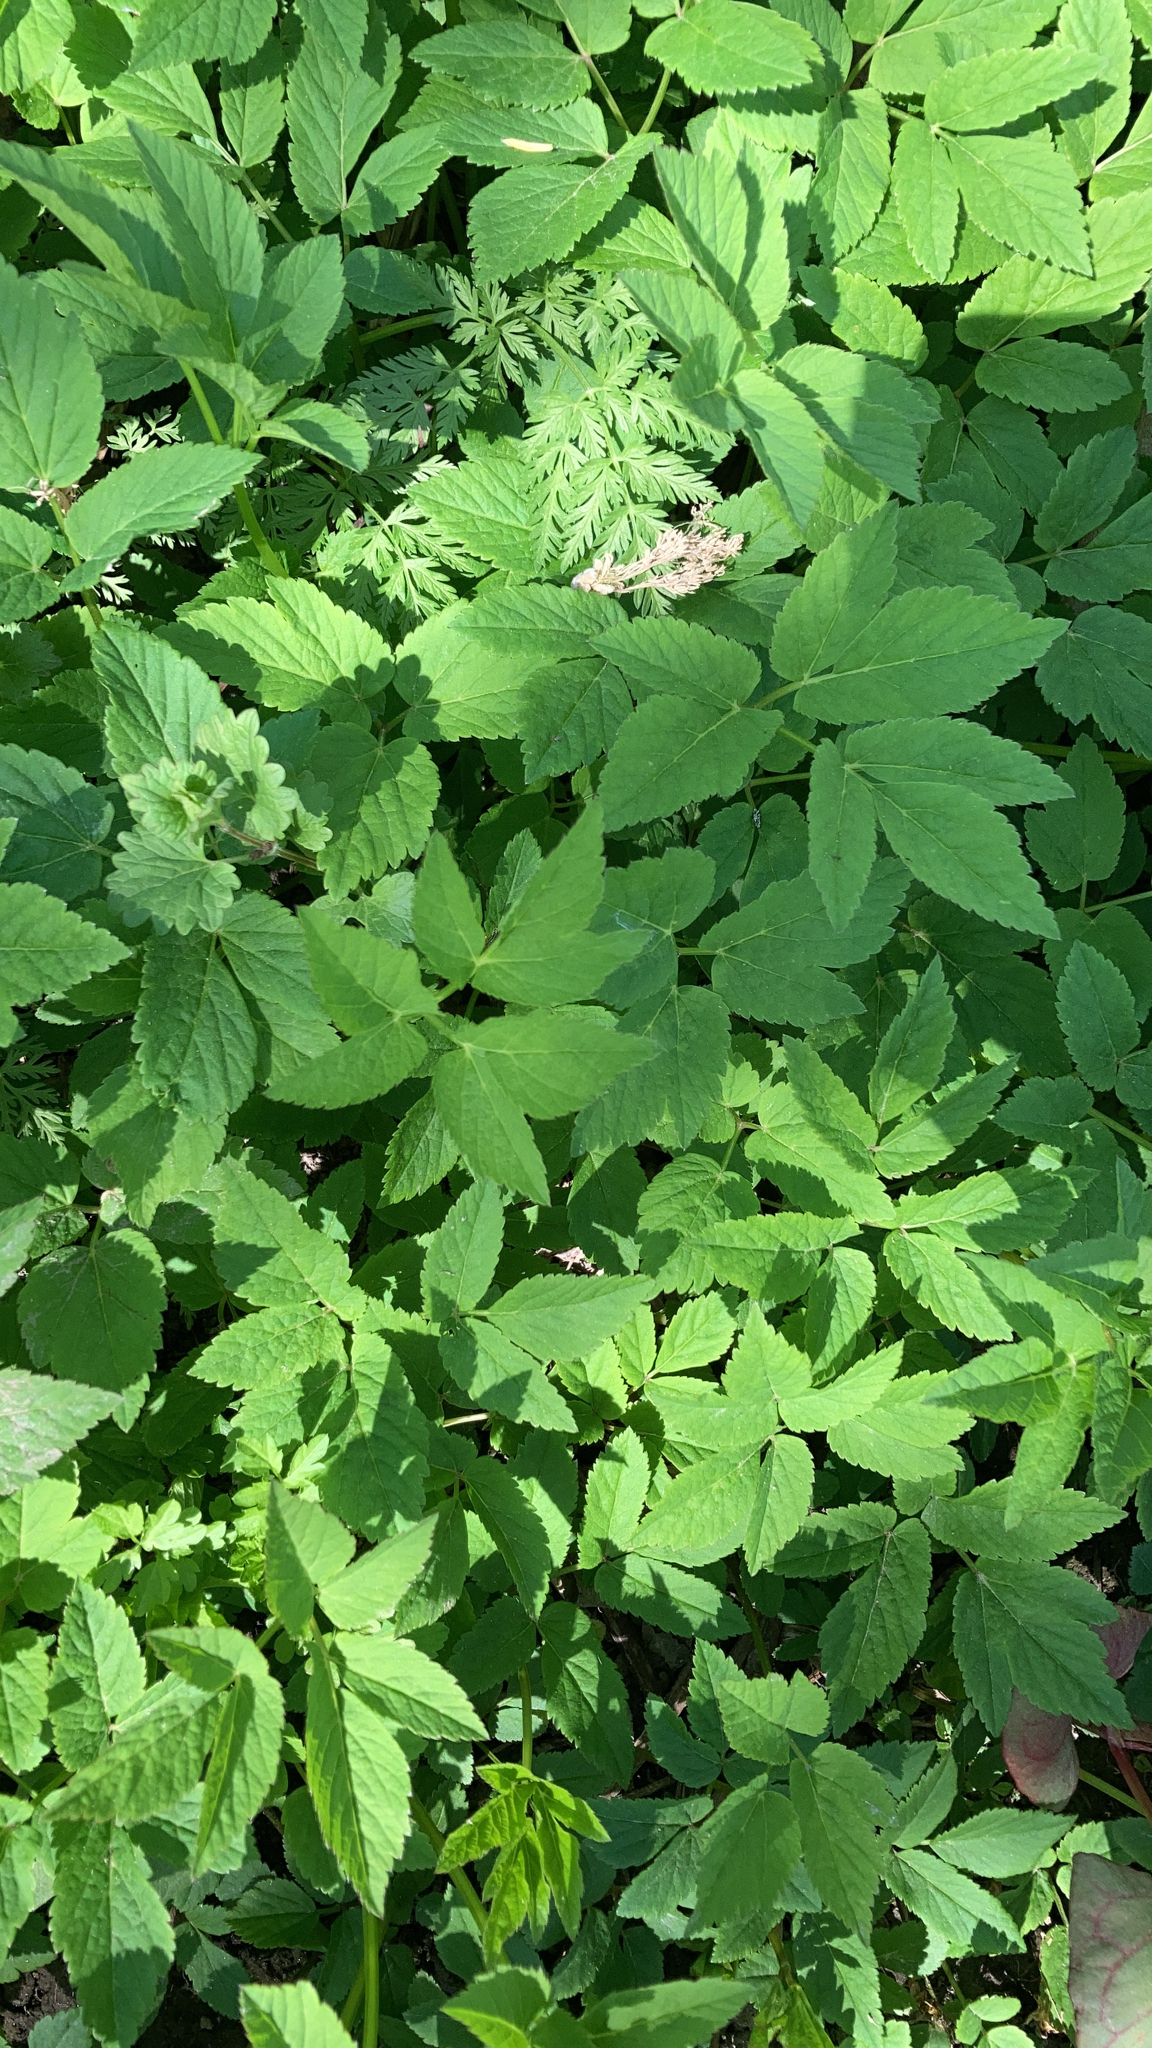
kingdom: Plantae
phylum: Tracheophyta
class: Magnoliopsida
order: Apiales
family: Apiaceae
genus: Aegopodium
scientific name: Aegopodium podagraria
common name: Ground-elder
